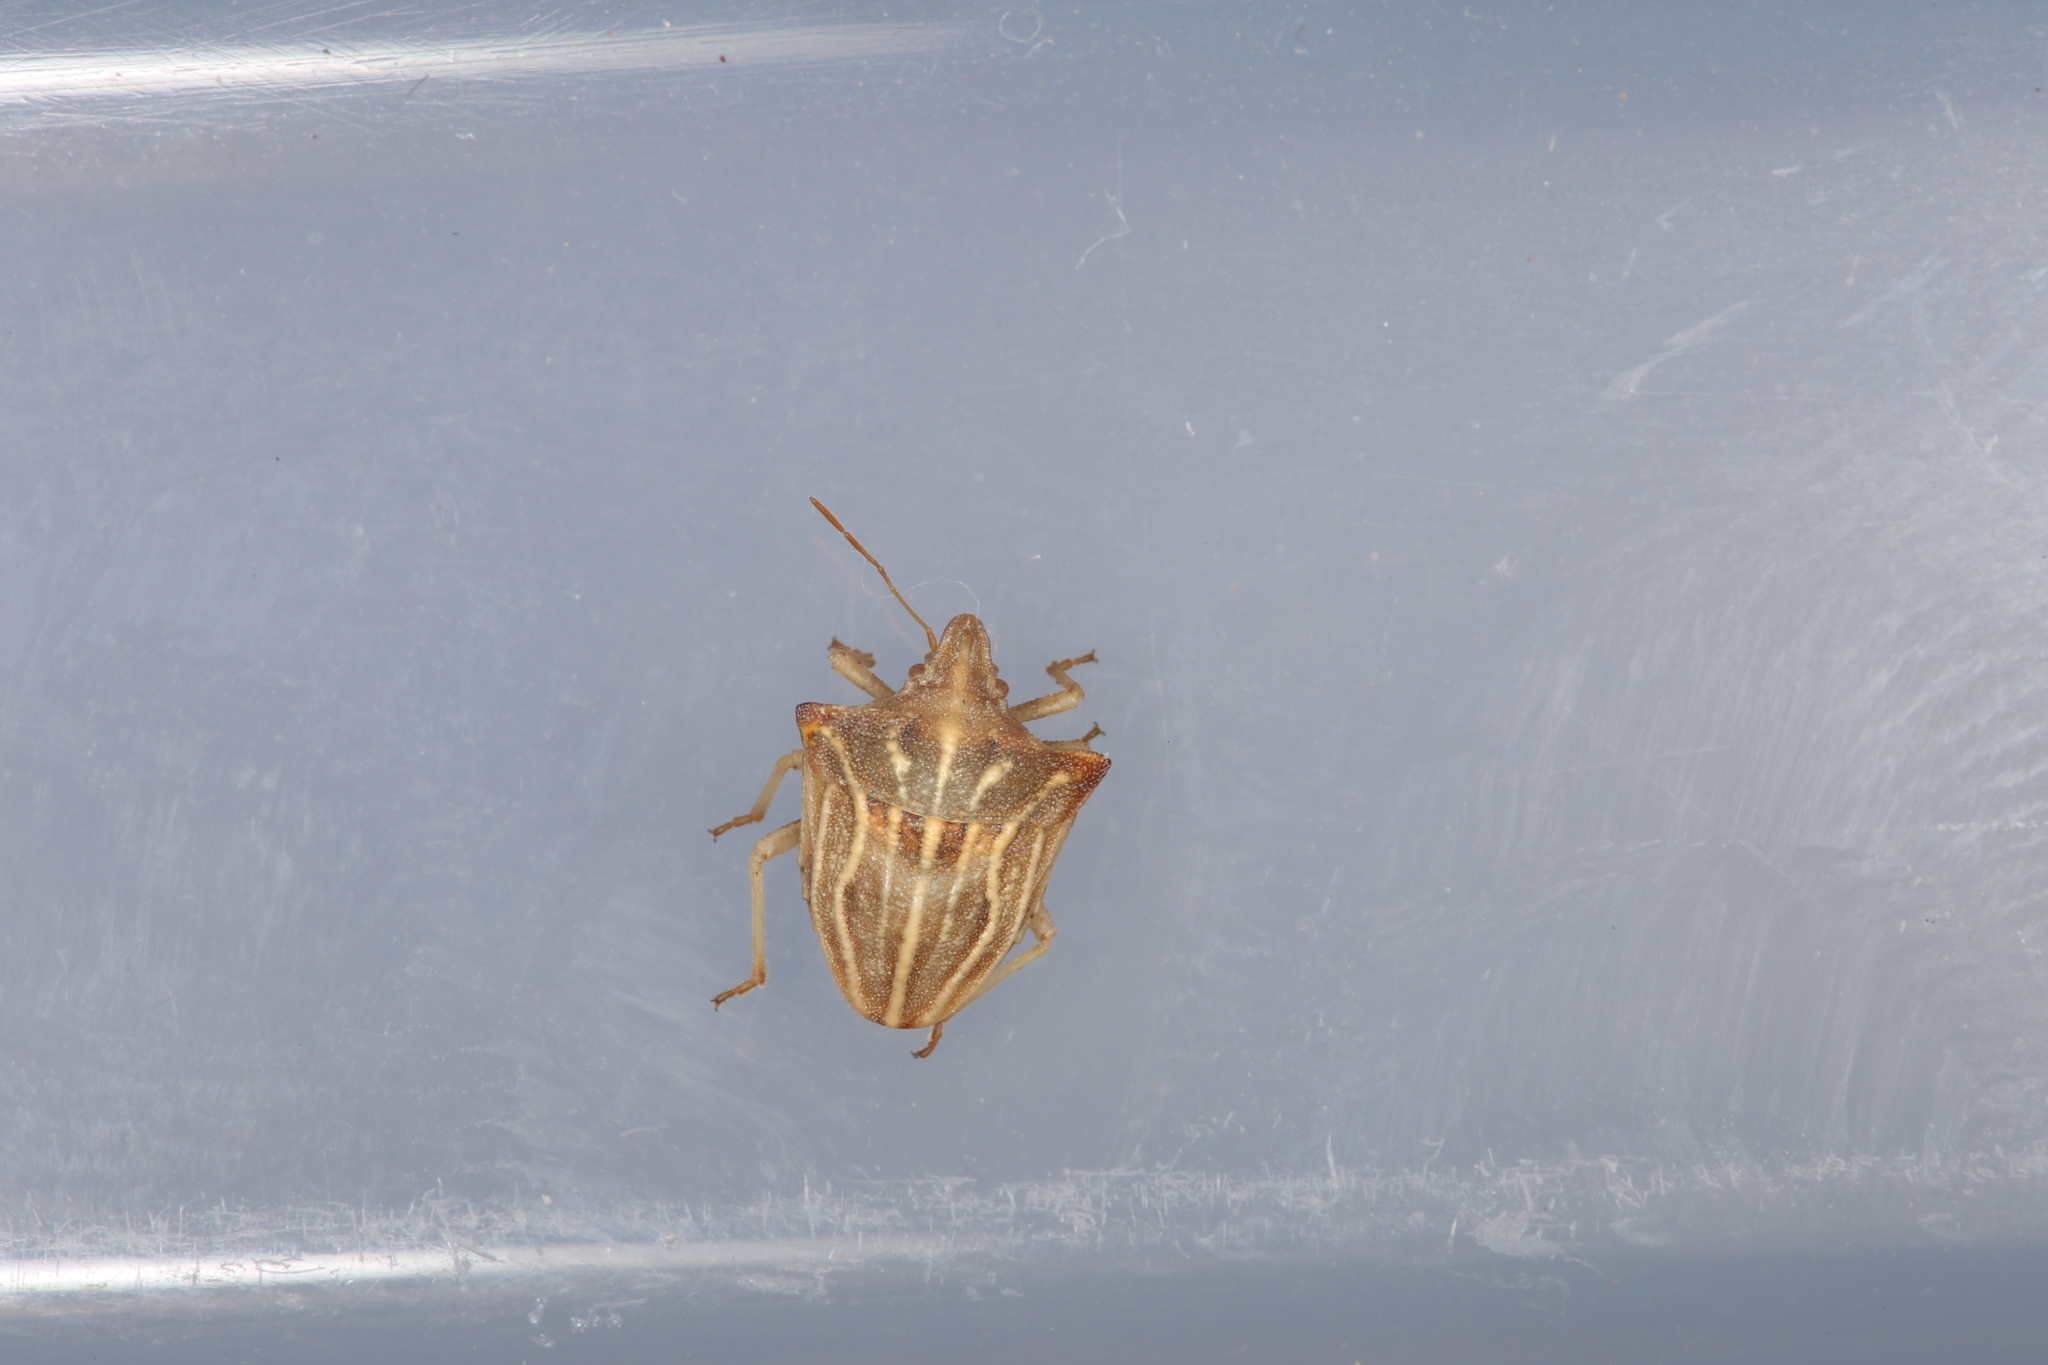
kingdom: Animalia
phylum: Arthropoda
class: Insecta
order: Hemiptera
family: Pentatomidae
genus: Ancyrosoma
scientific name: Ancyrosoma leucogrammes
